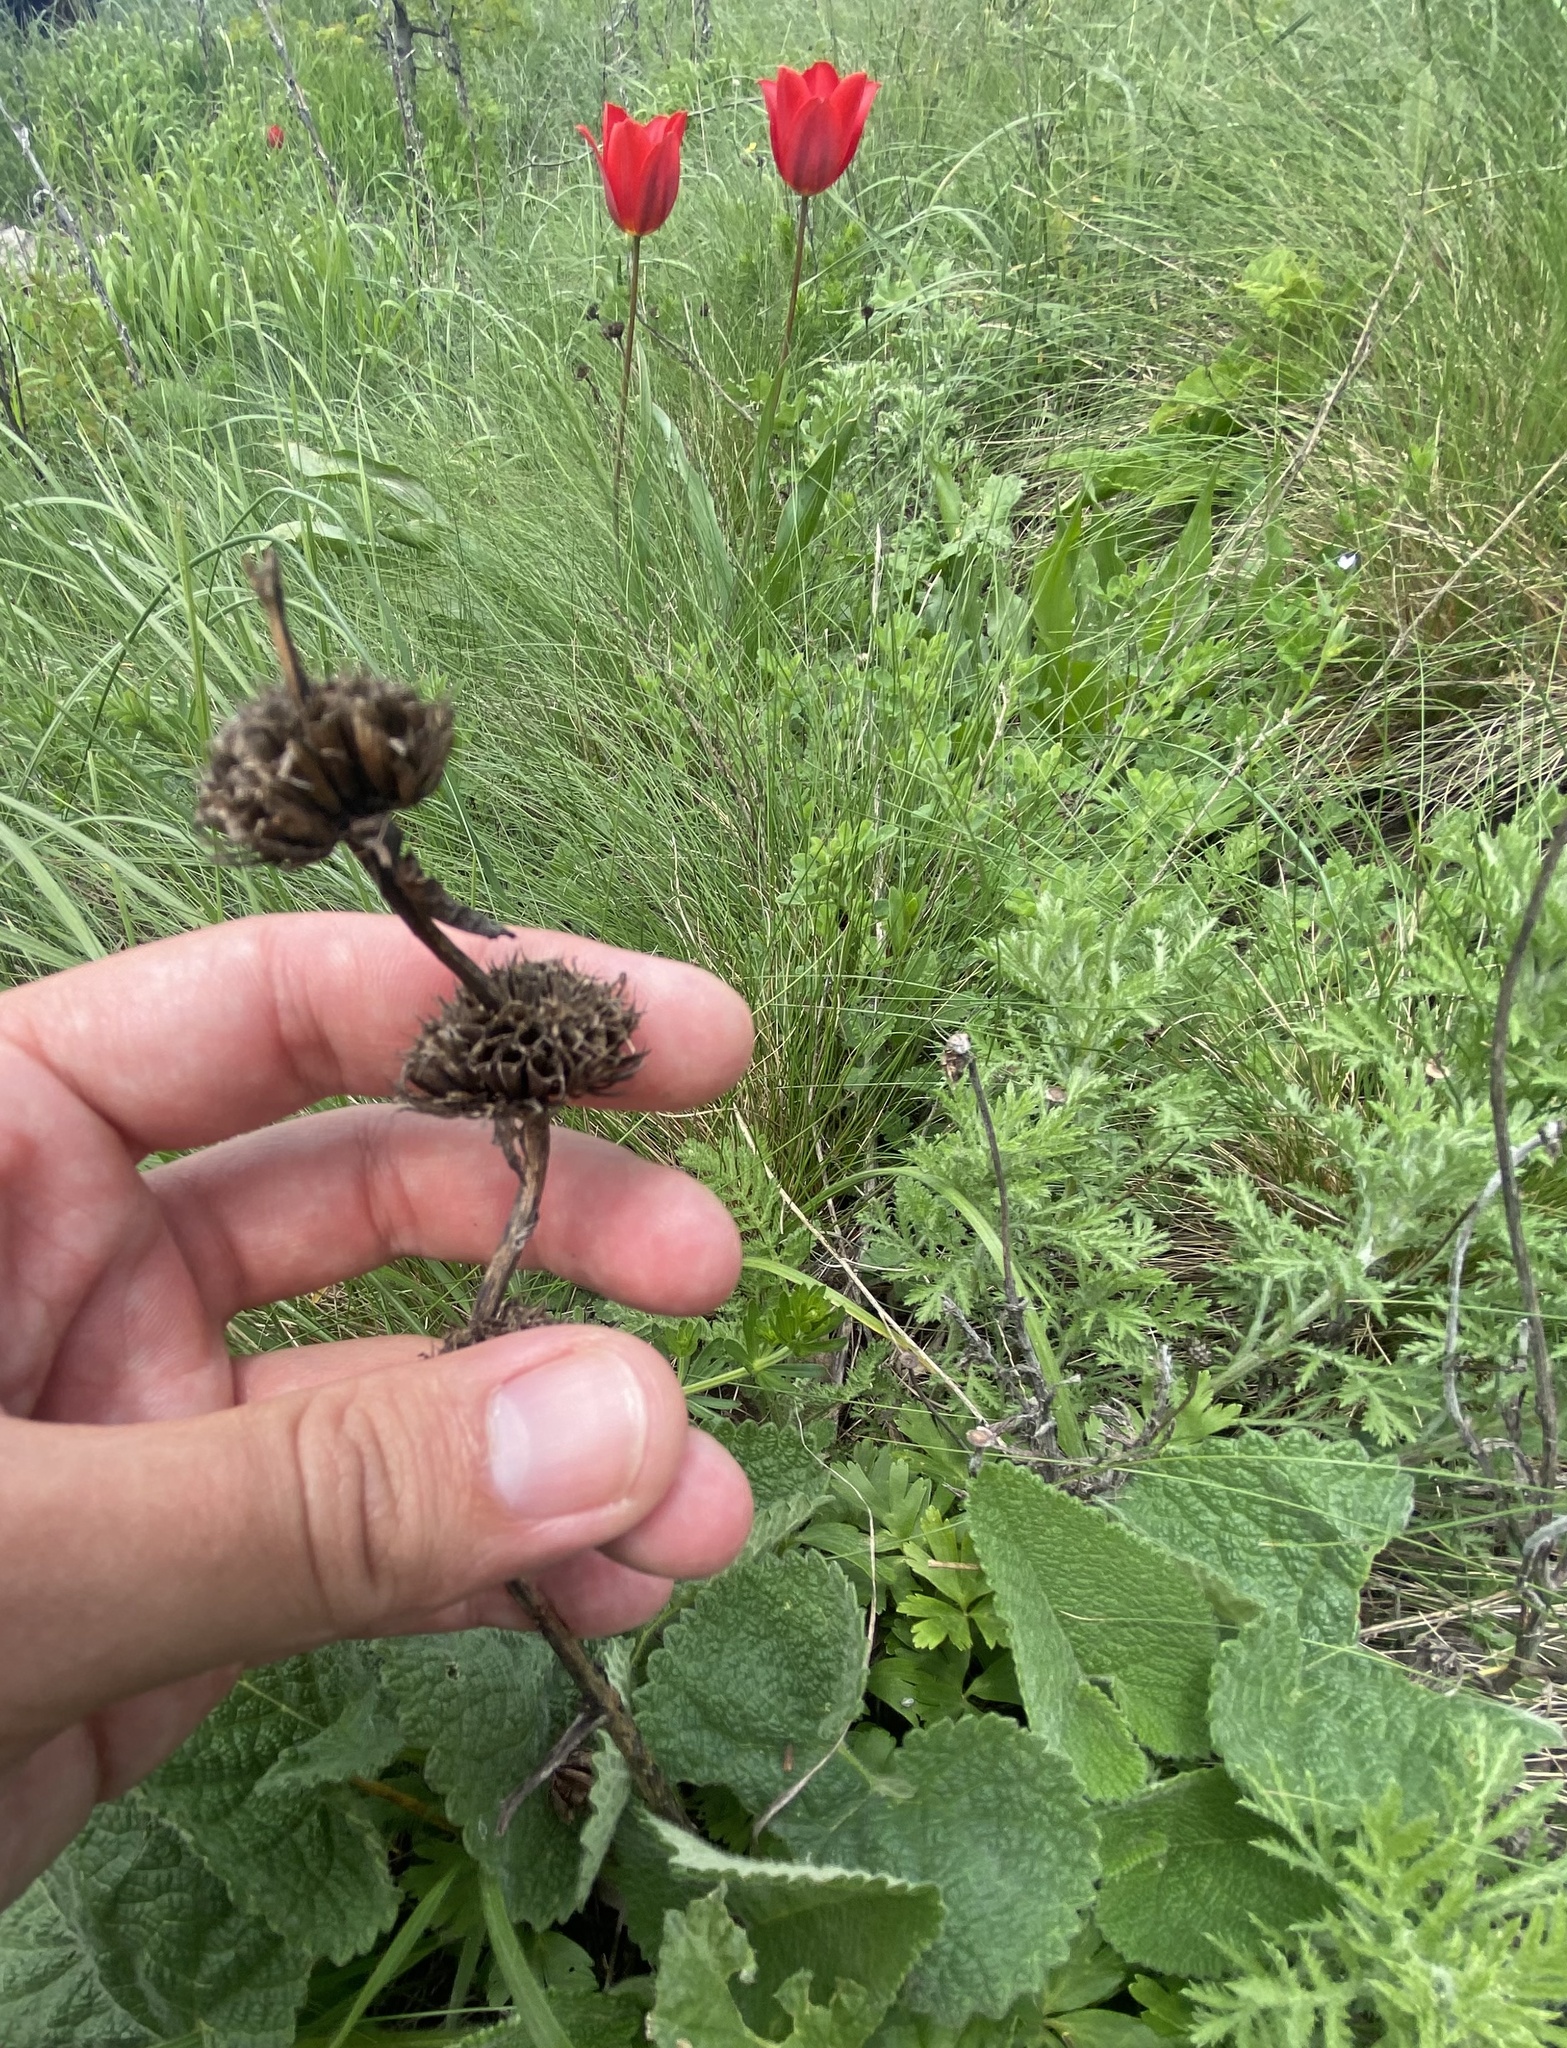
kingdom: Plantae
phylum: Tracheophyta
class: Magnoliopsida
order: Lamiales
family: Lamiaceae
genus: Phlomoides
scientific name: Phlomoides tuberosa
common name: Tuberous jerusalem sage
